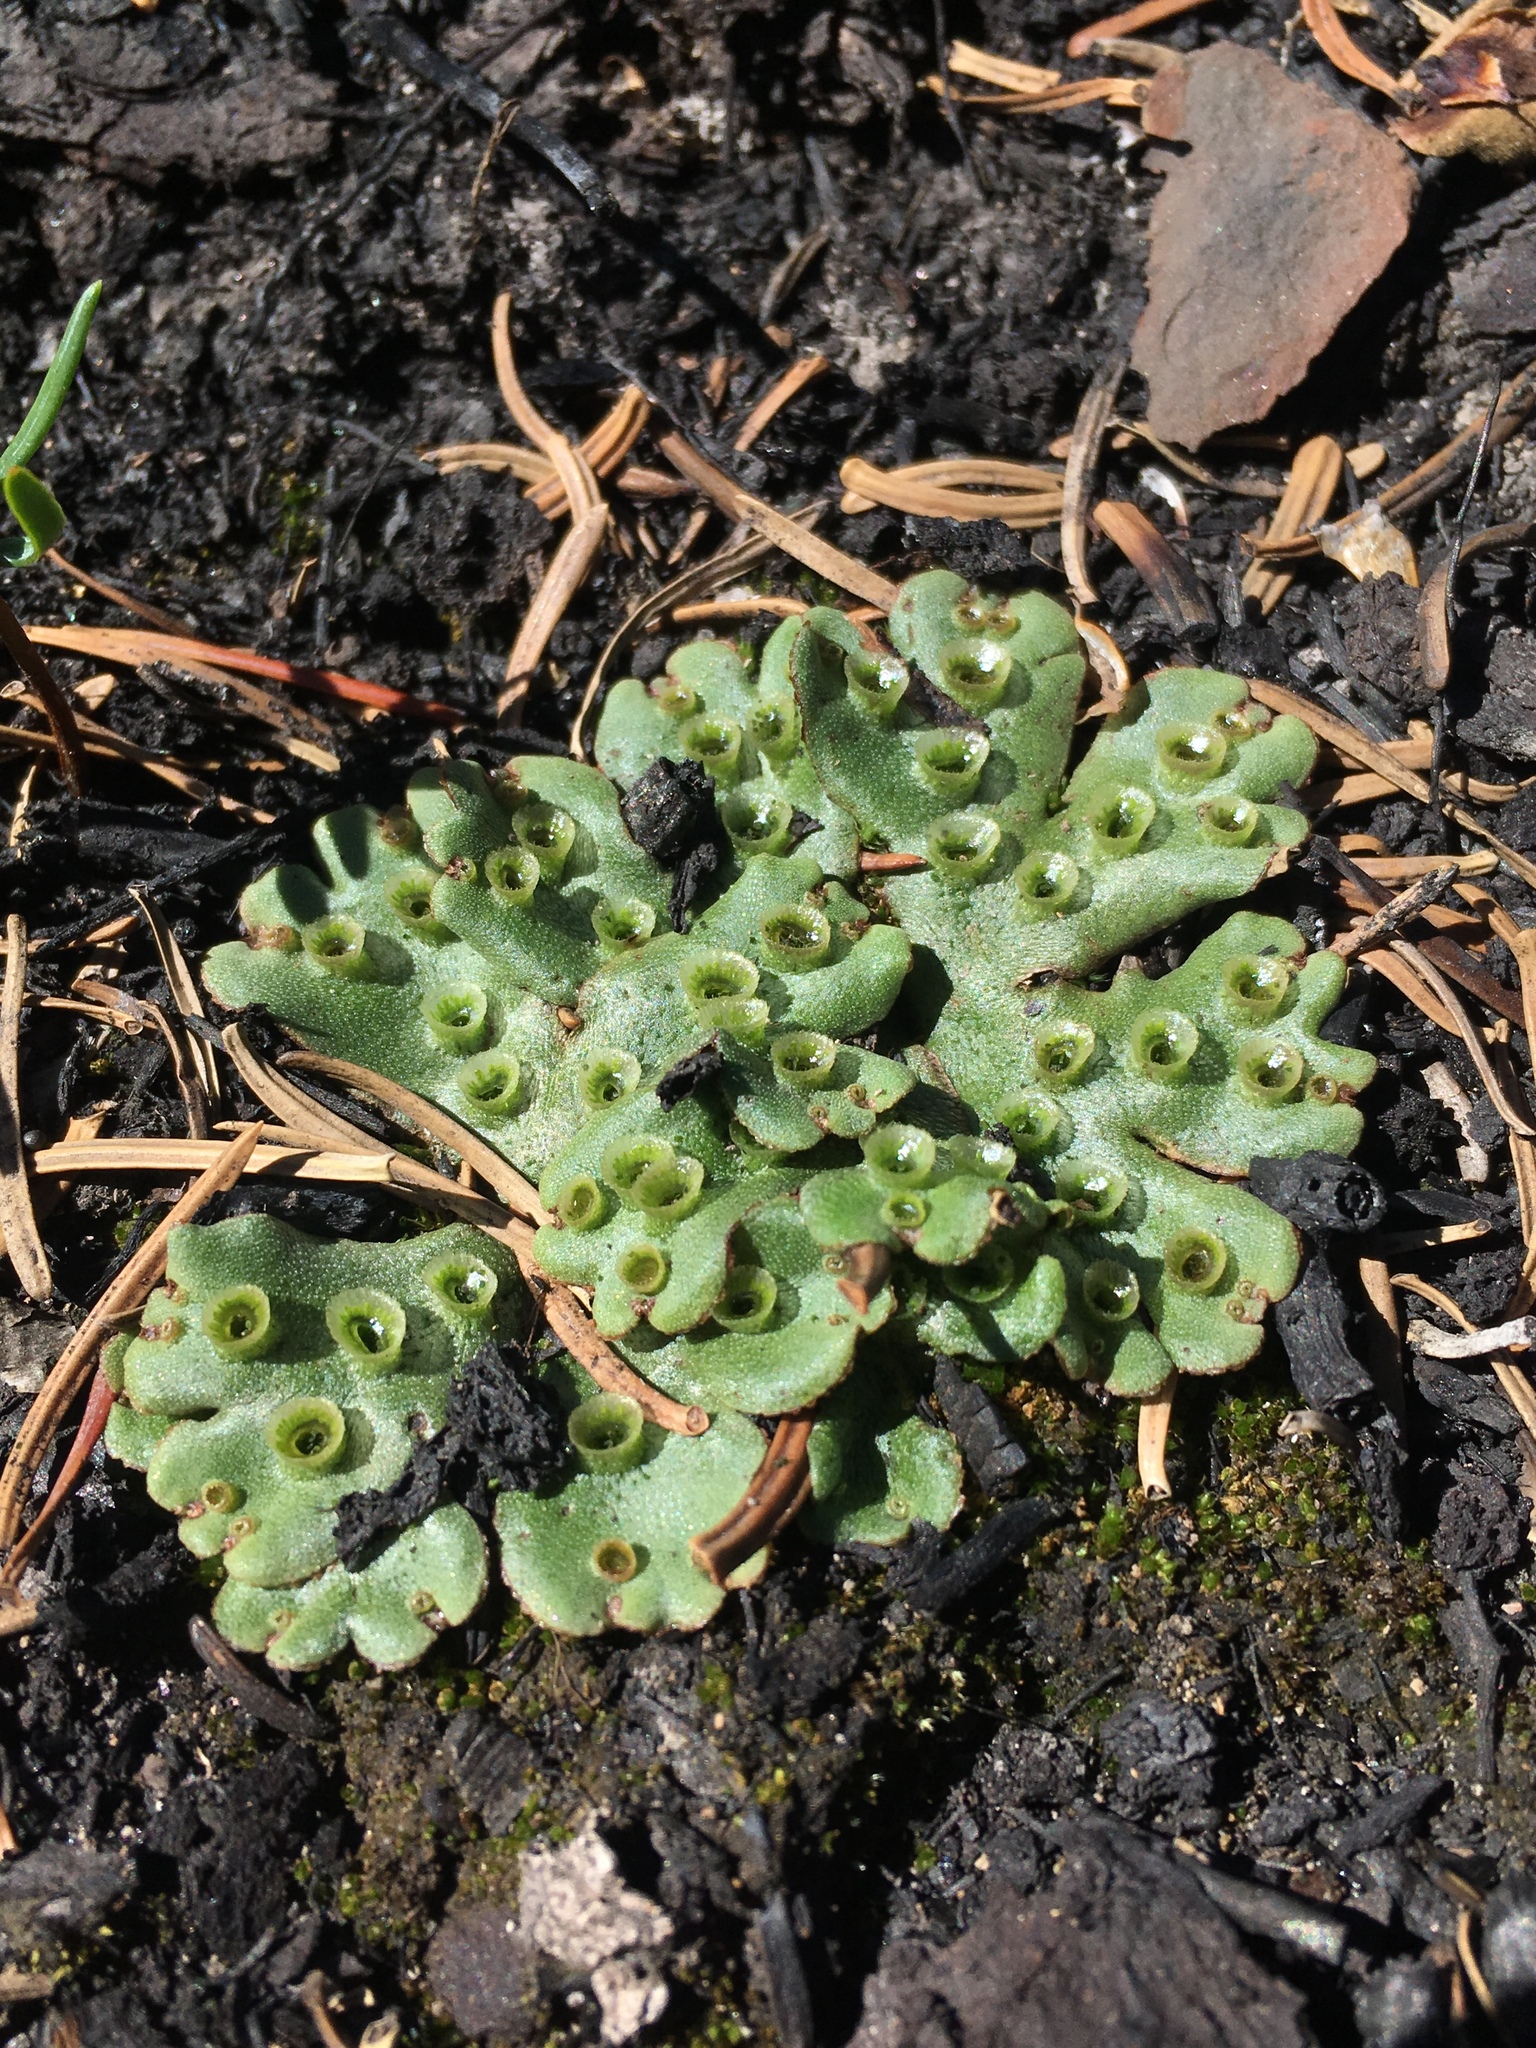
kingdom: Plantae
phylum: Marchantiophyta
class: Marchantiopsida
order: Marchantiales
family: Marchantiaceae
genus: Marchantia
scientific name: Marchantia polymorpha
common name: Common liverwort
